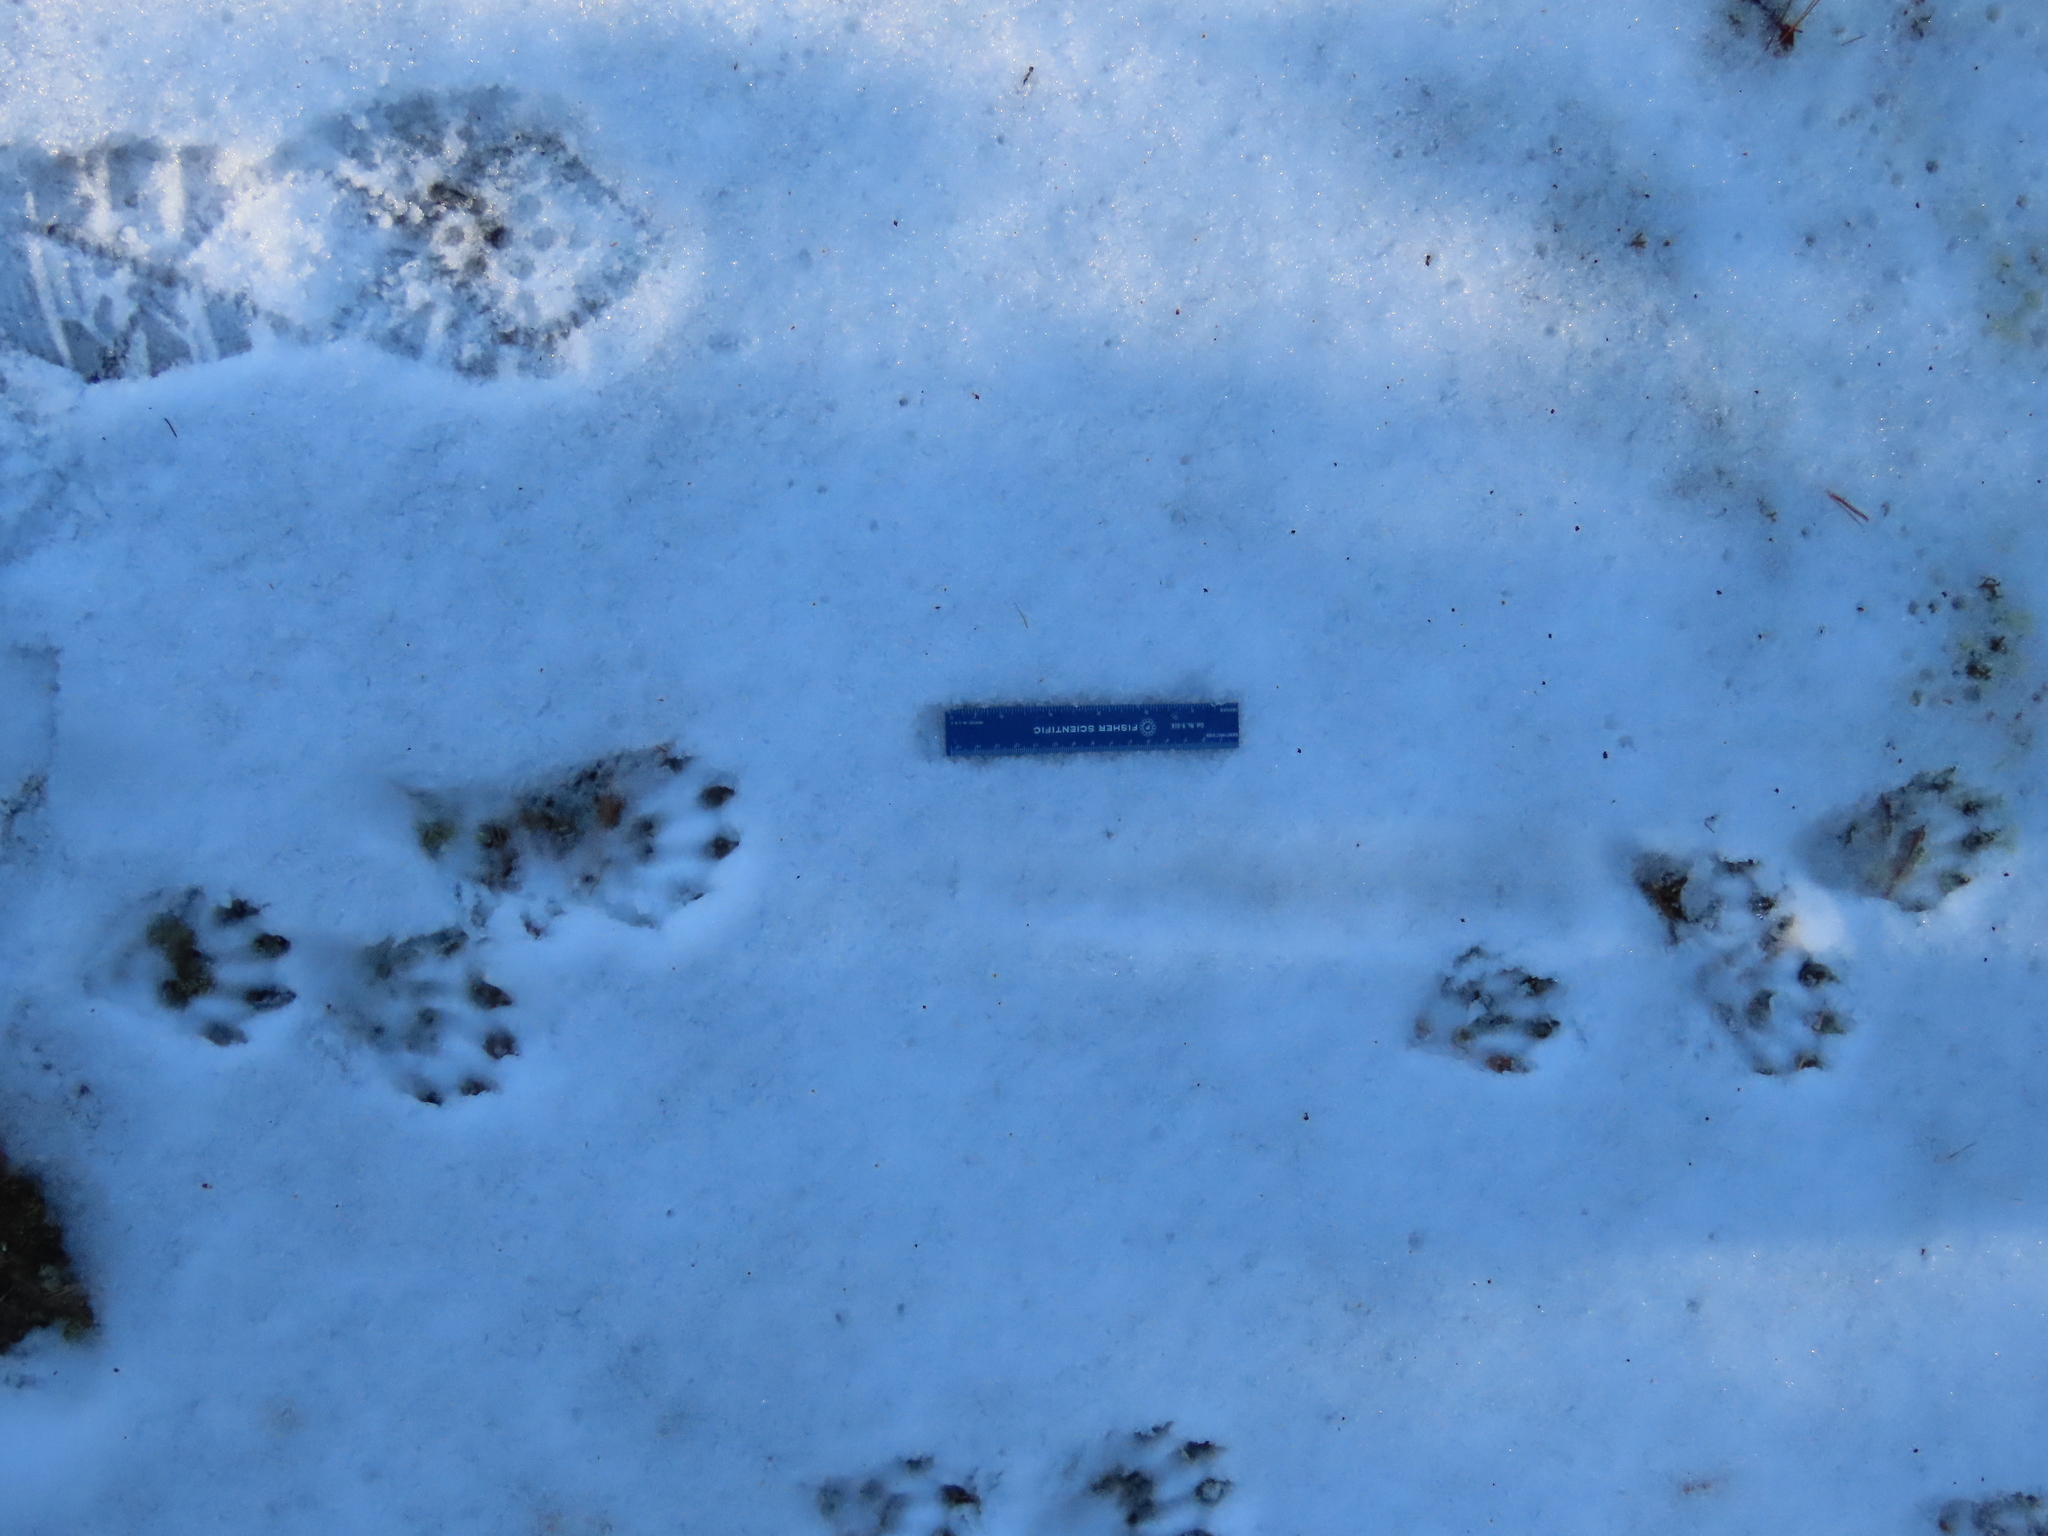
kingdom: Animalia
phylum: Chordata
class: Mammalia
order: Carnivora
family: Mustelidae
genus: Lontra
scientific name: Lontra canadensis
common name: North american river otter
